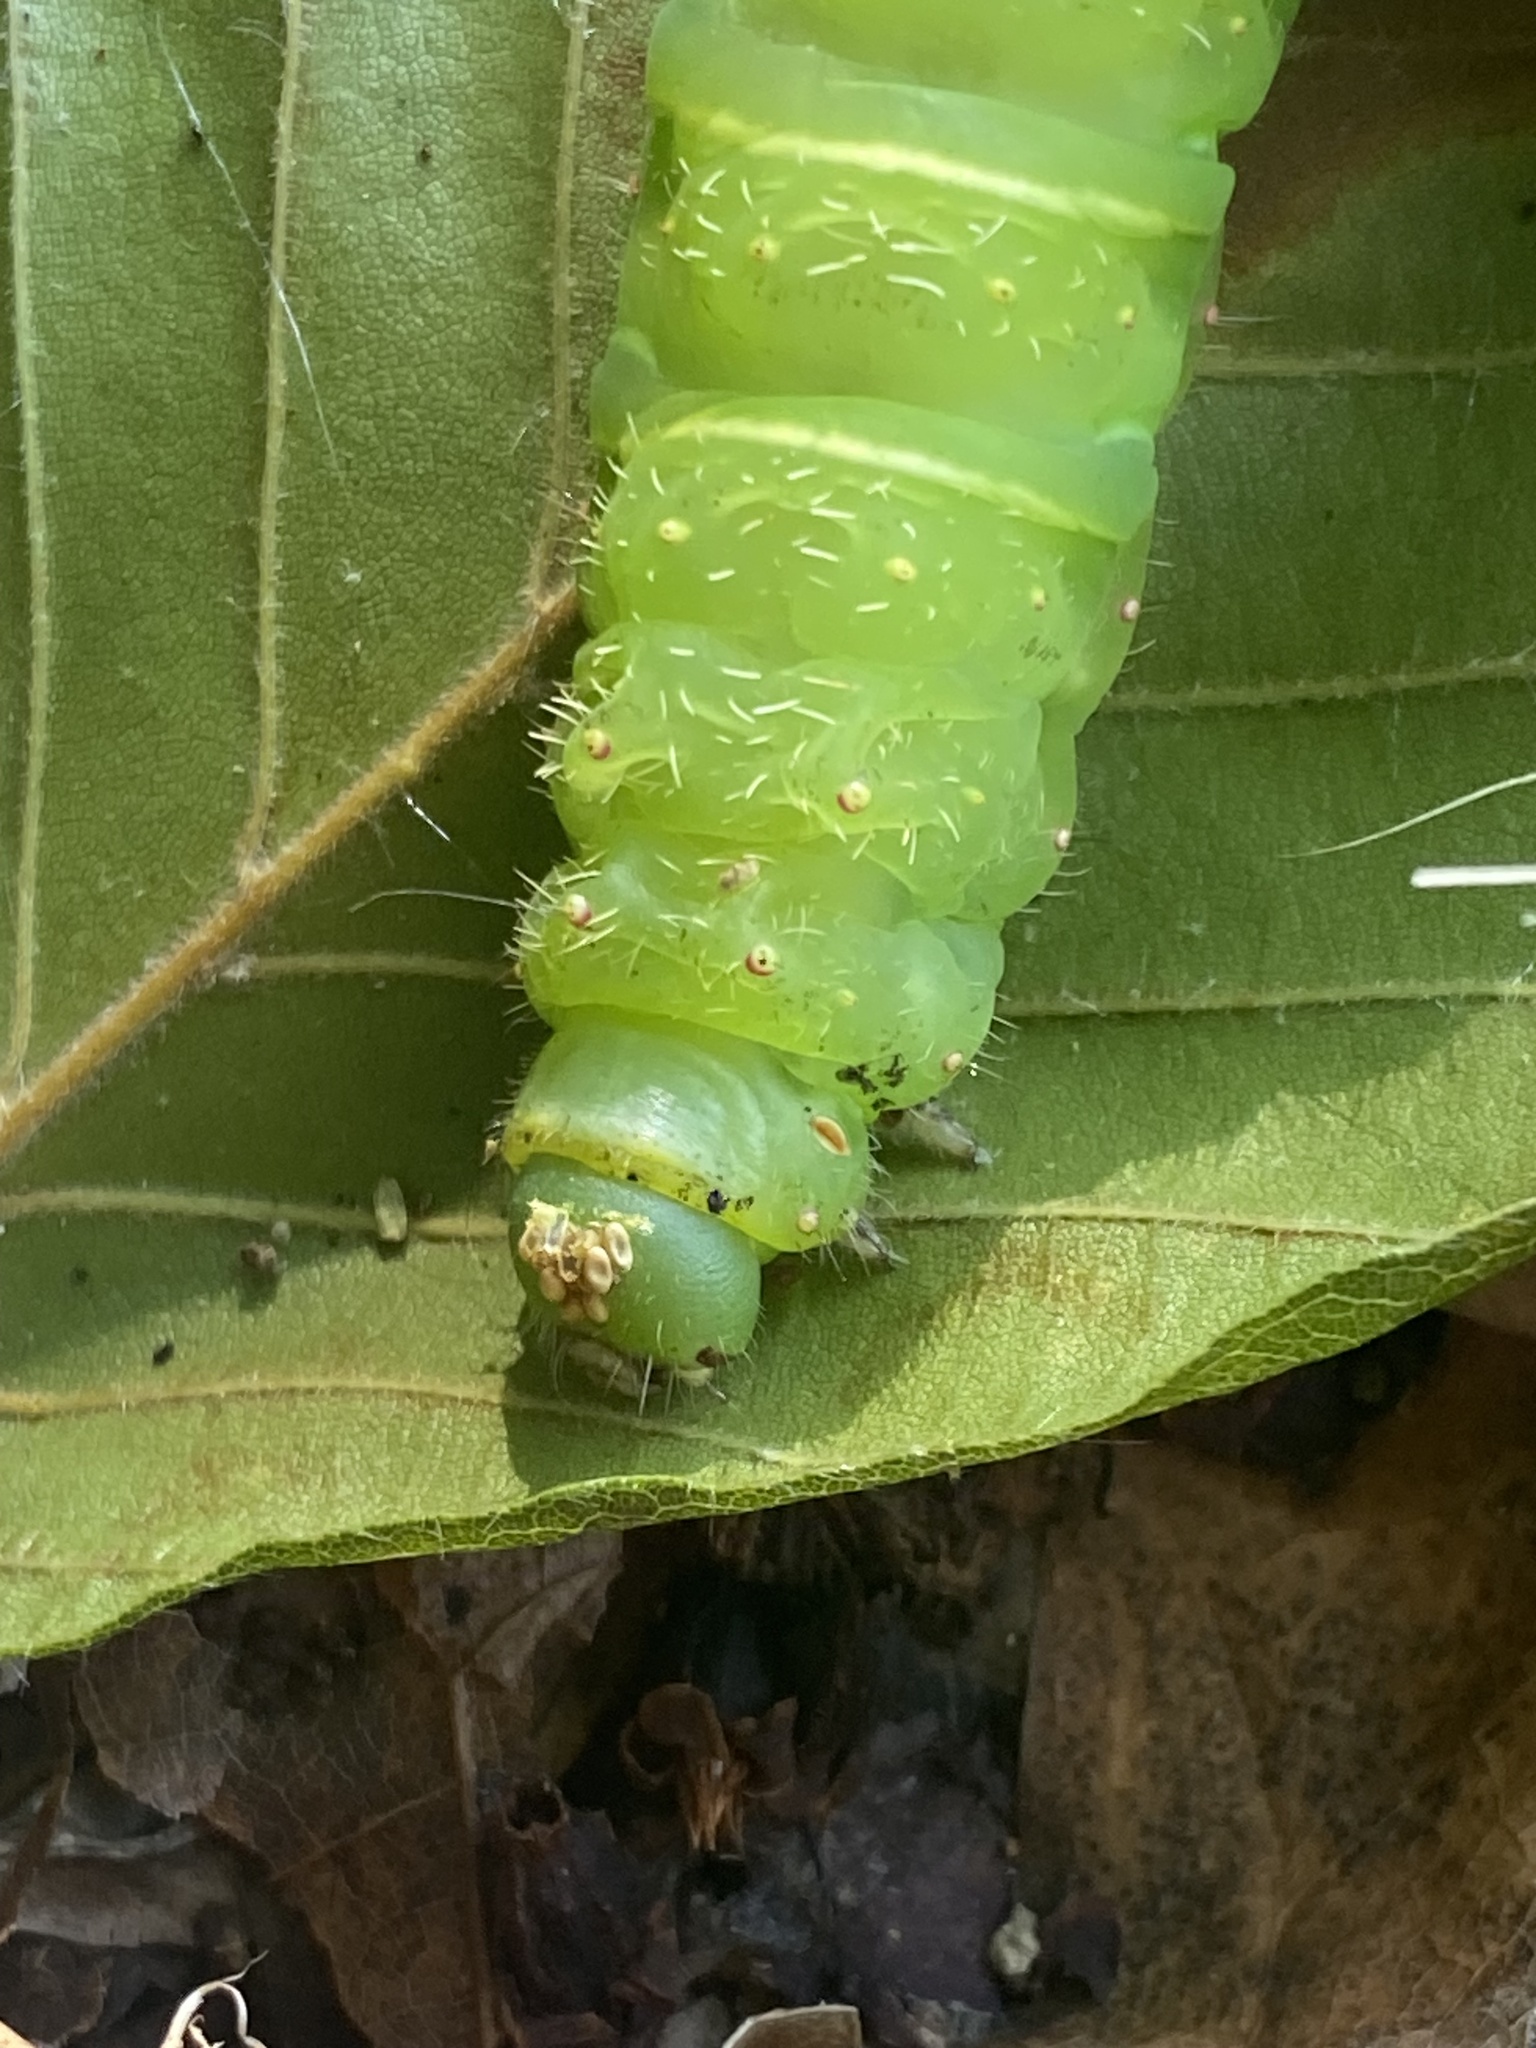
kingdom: Animalia
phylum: Arthropoda
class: Insecta
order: Lepidoptera
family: Saturniidae
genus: Actias
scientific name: Actias luna
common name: Luna moth
